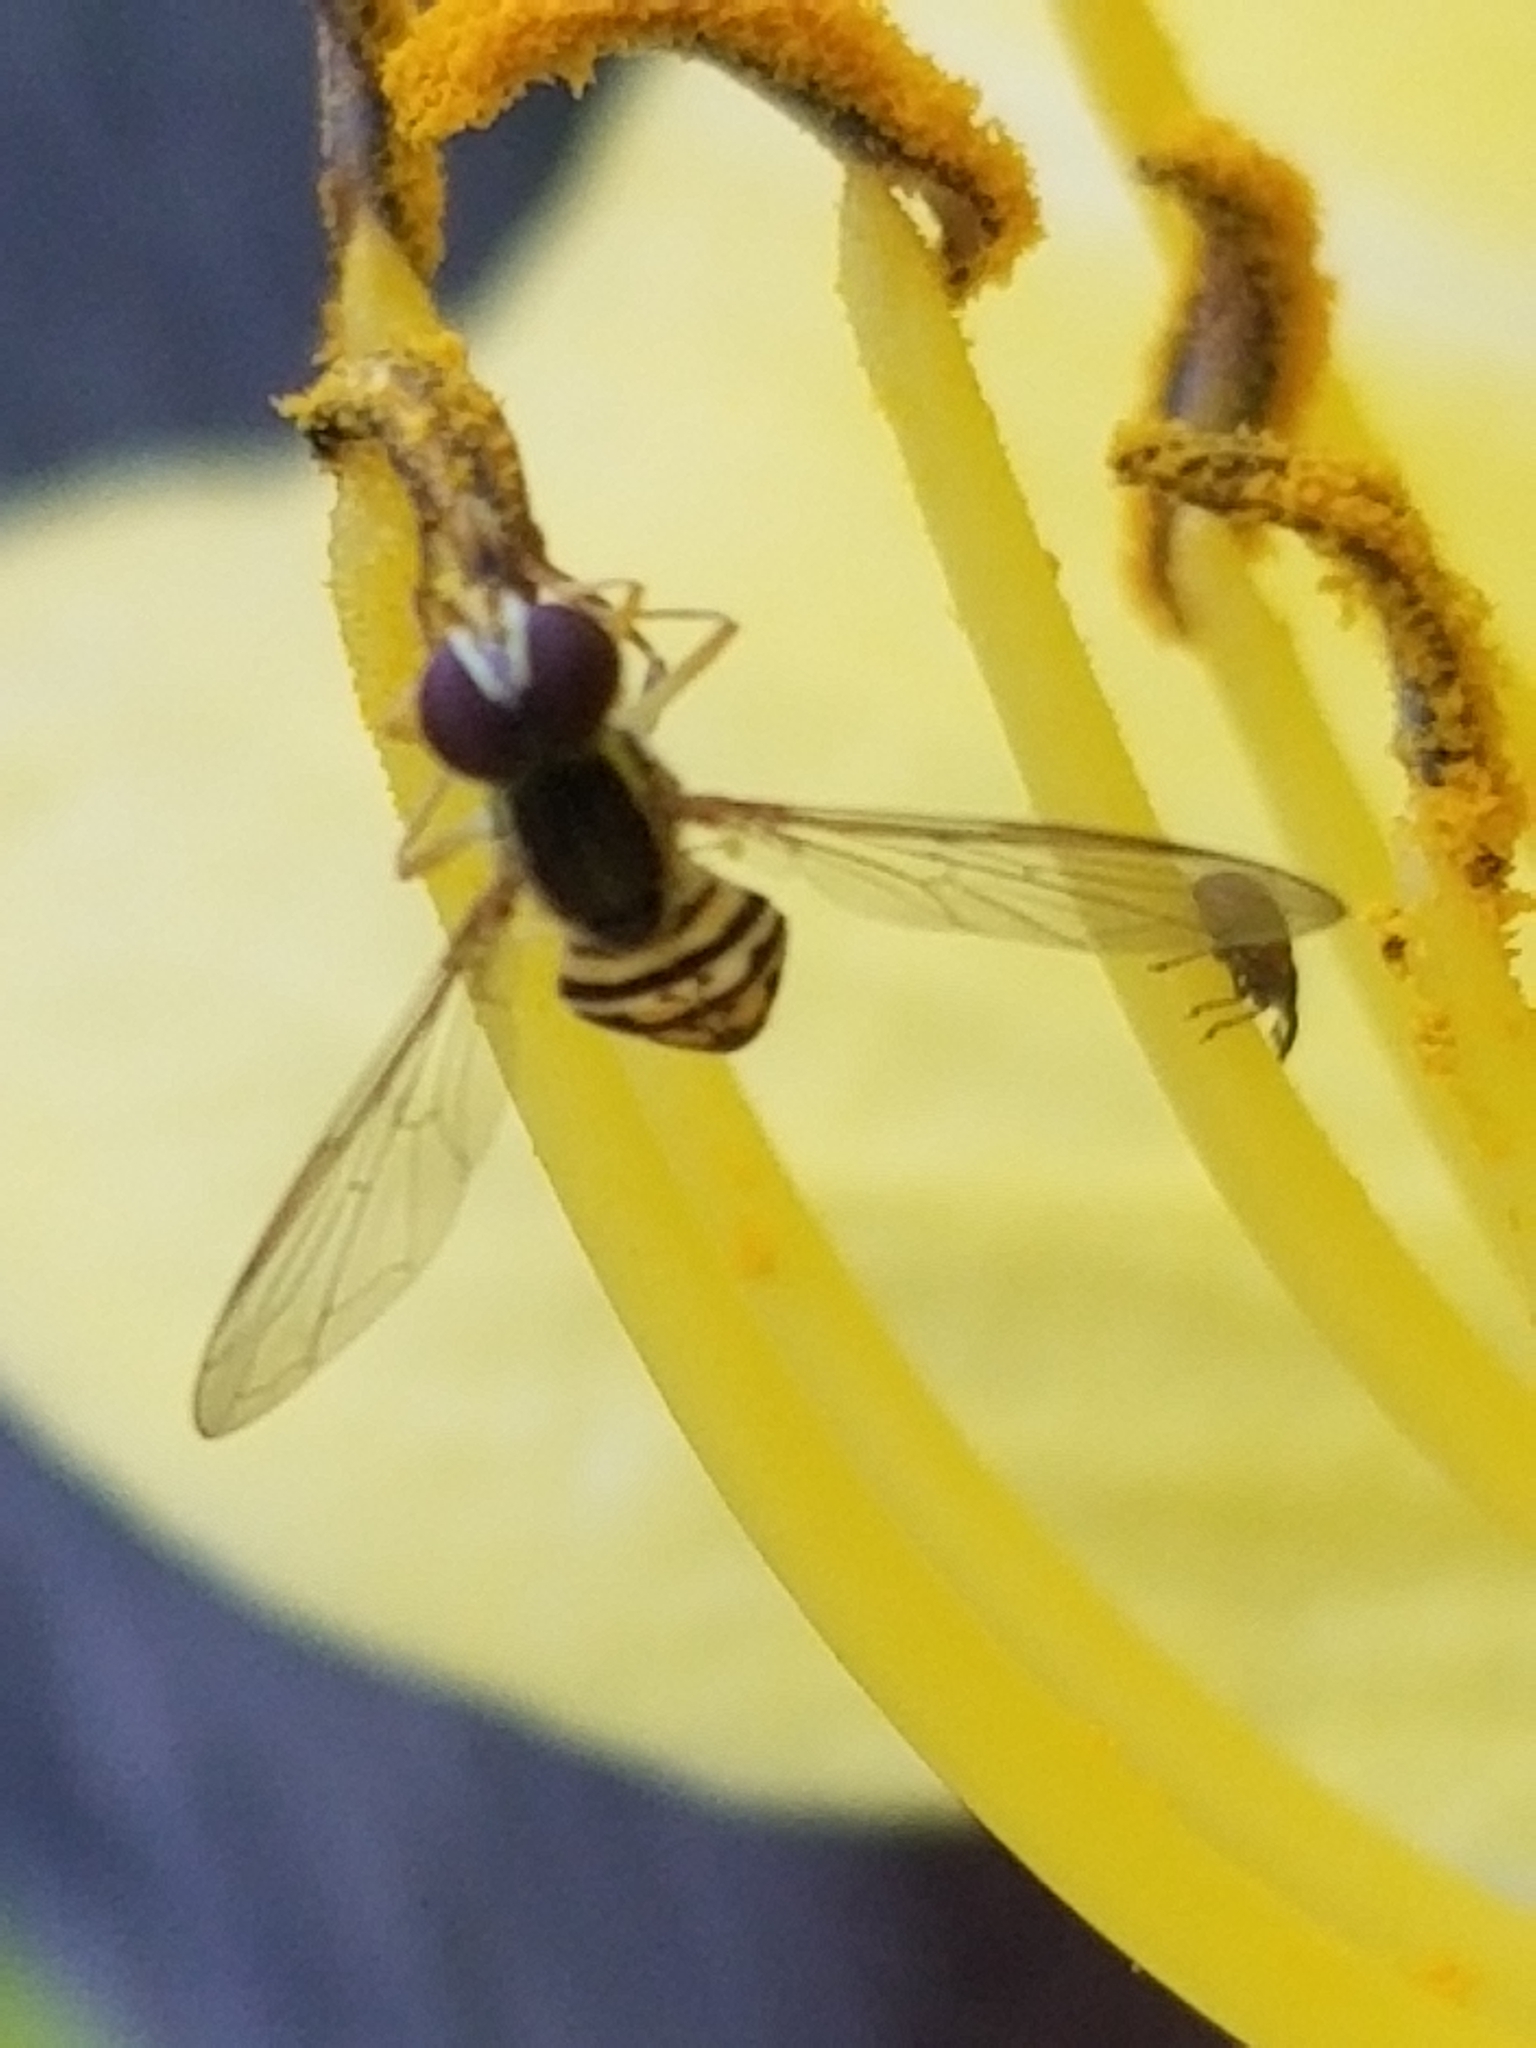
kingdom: Animalia
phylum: Arthropoda
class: Insecta
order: Diptera
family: Syrphidae
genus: Toxomerus
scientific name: Toxomerus geminatus
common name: Eastern calligrapher
